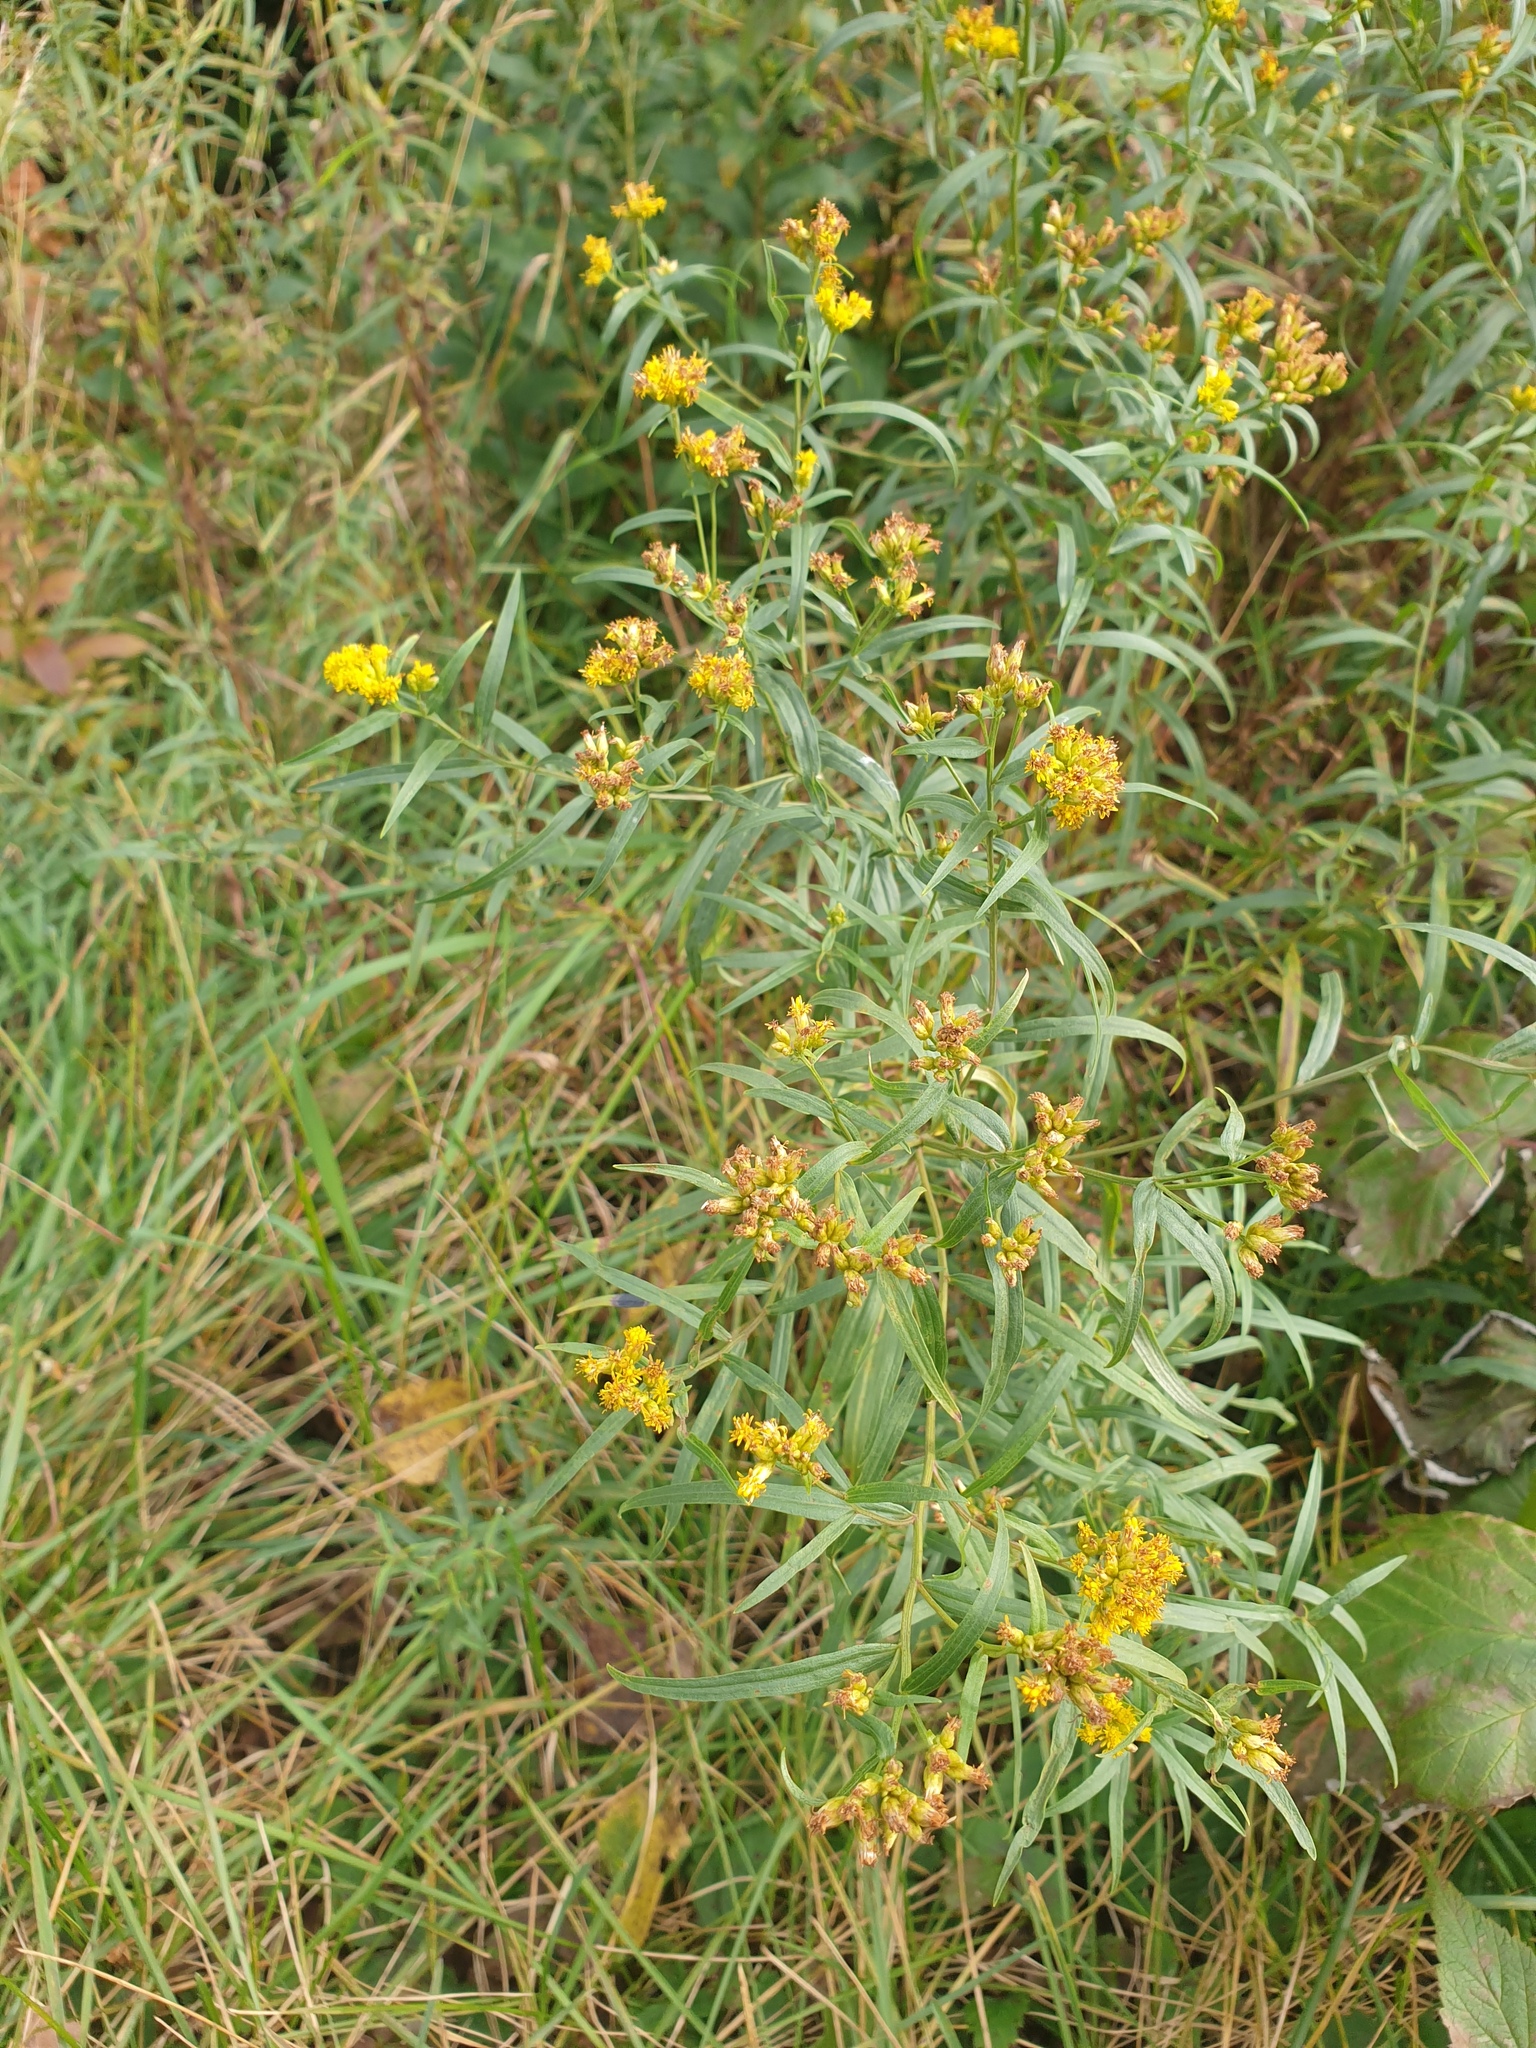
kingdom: Plantae
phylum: Tracheophyta
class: Magnoliopsida
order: Asterales
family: Asteraceae
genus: Euthamia
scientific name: Euthamia graminifolia
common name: Common goldentop
